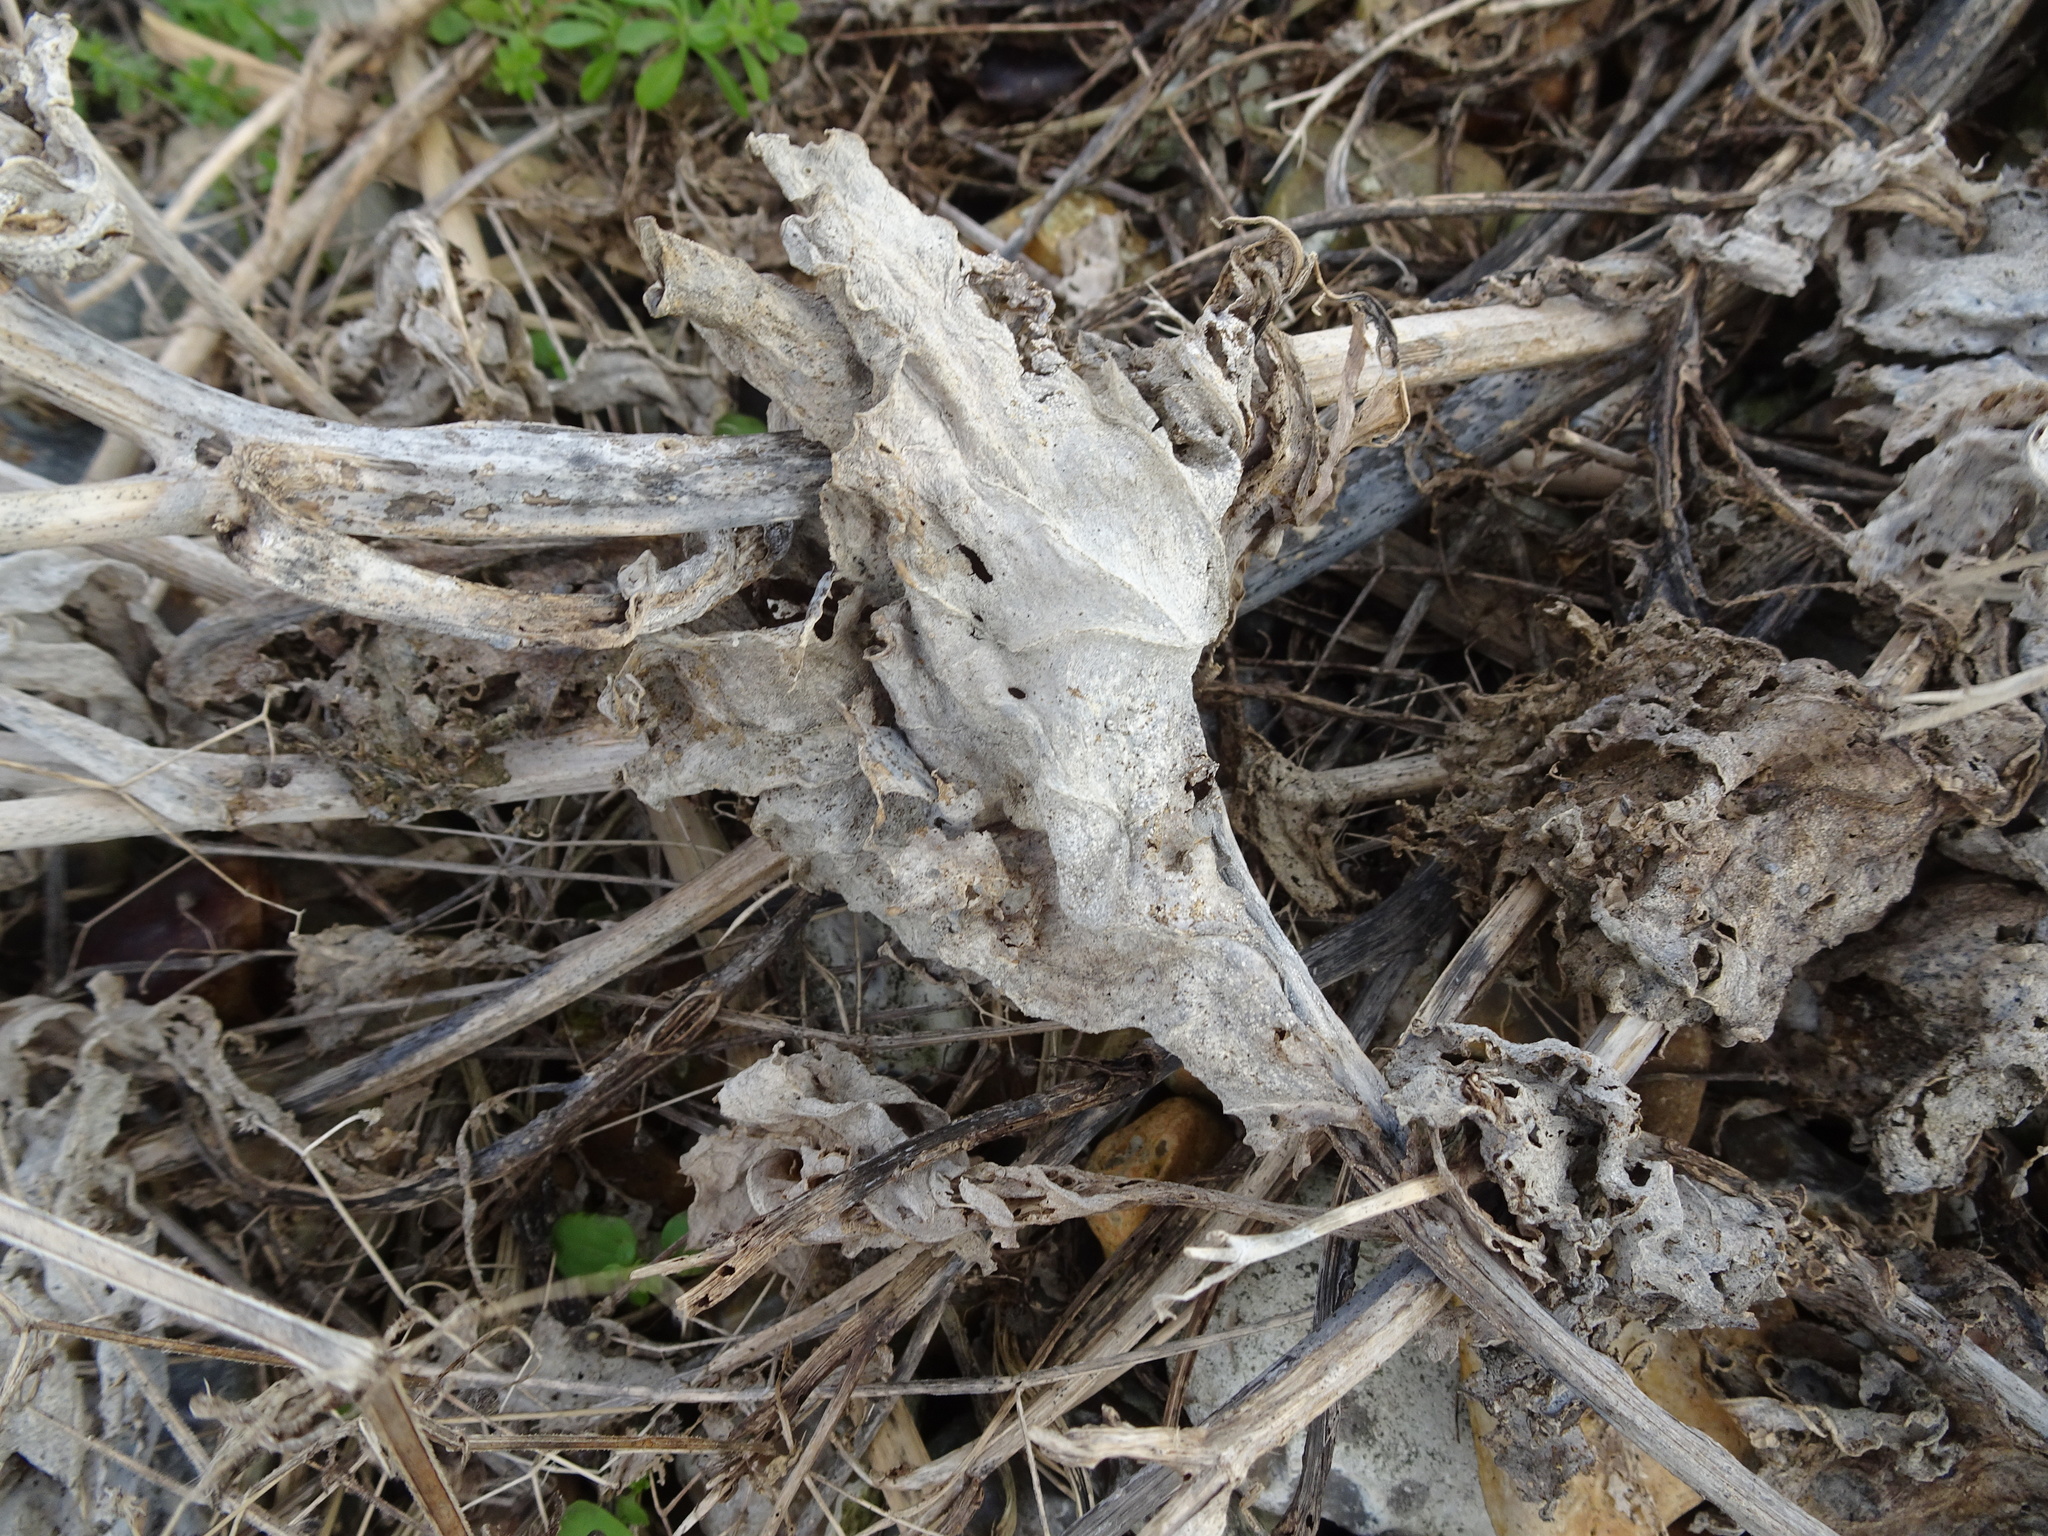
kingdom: Plantae
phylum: Tracheophyta
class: Magnoliopsida
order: Brassicales
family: Brassicaceae
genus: Crambe
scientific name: Crambe maritima
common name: Sea-kale
